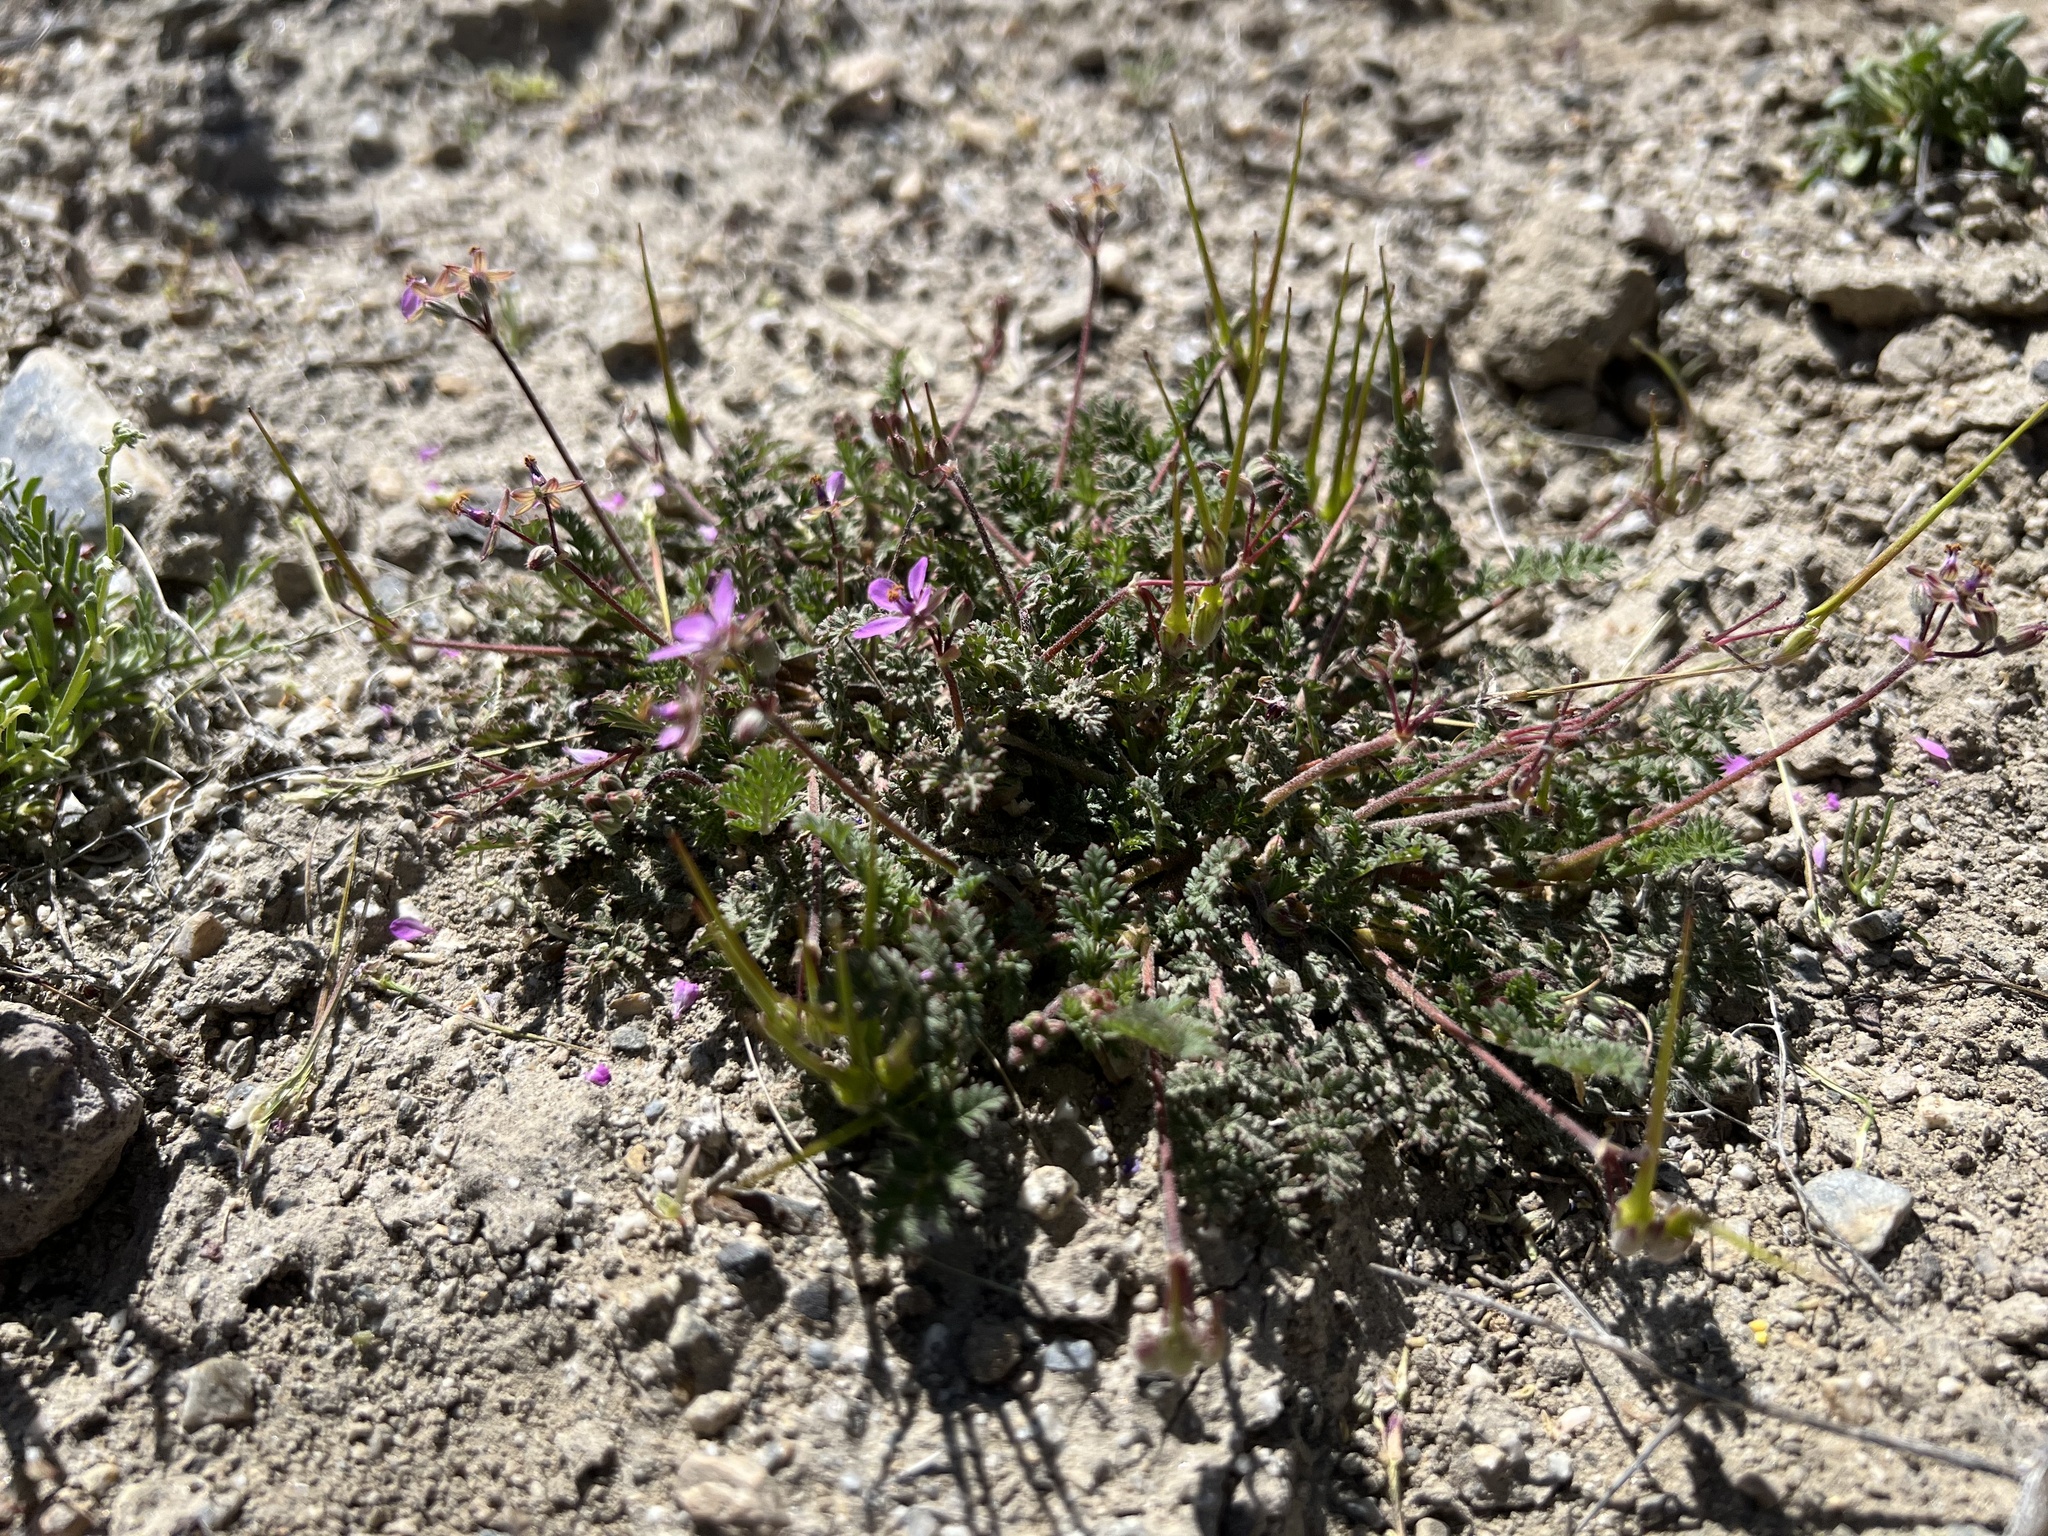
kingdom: Plantae
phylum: Tracheophyta
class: Magnoliopsida
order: Geraniales
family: Geraniaceae
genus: Erodium
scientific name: Erodium cicutarium
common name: Common stork's-bill
